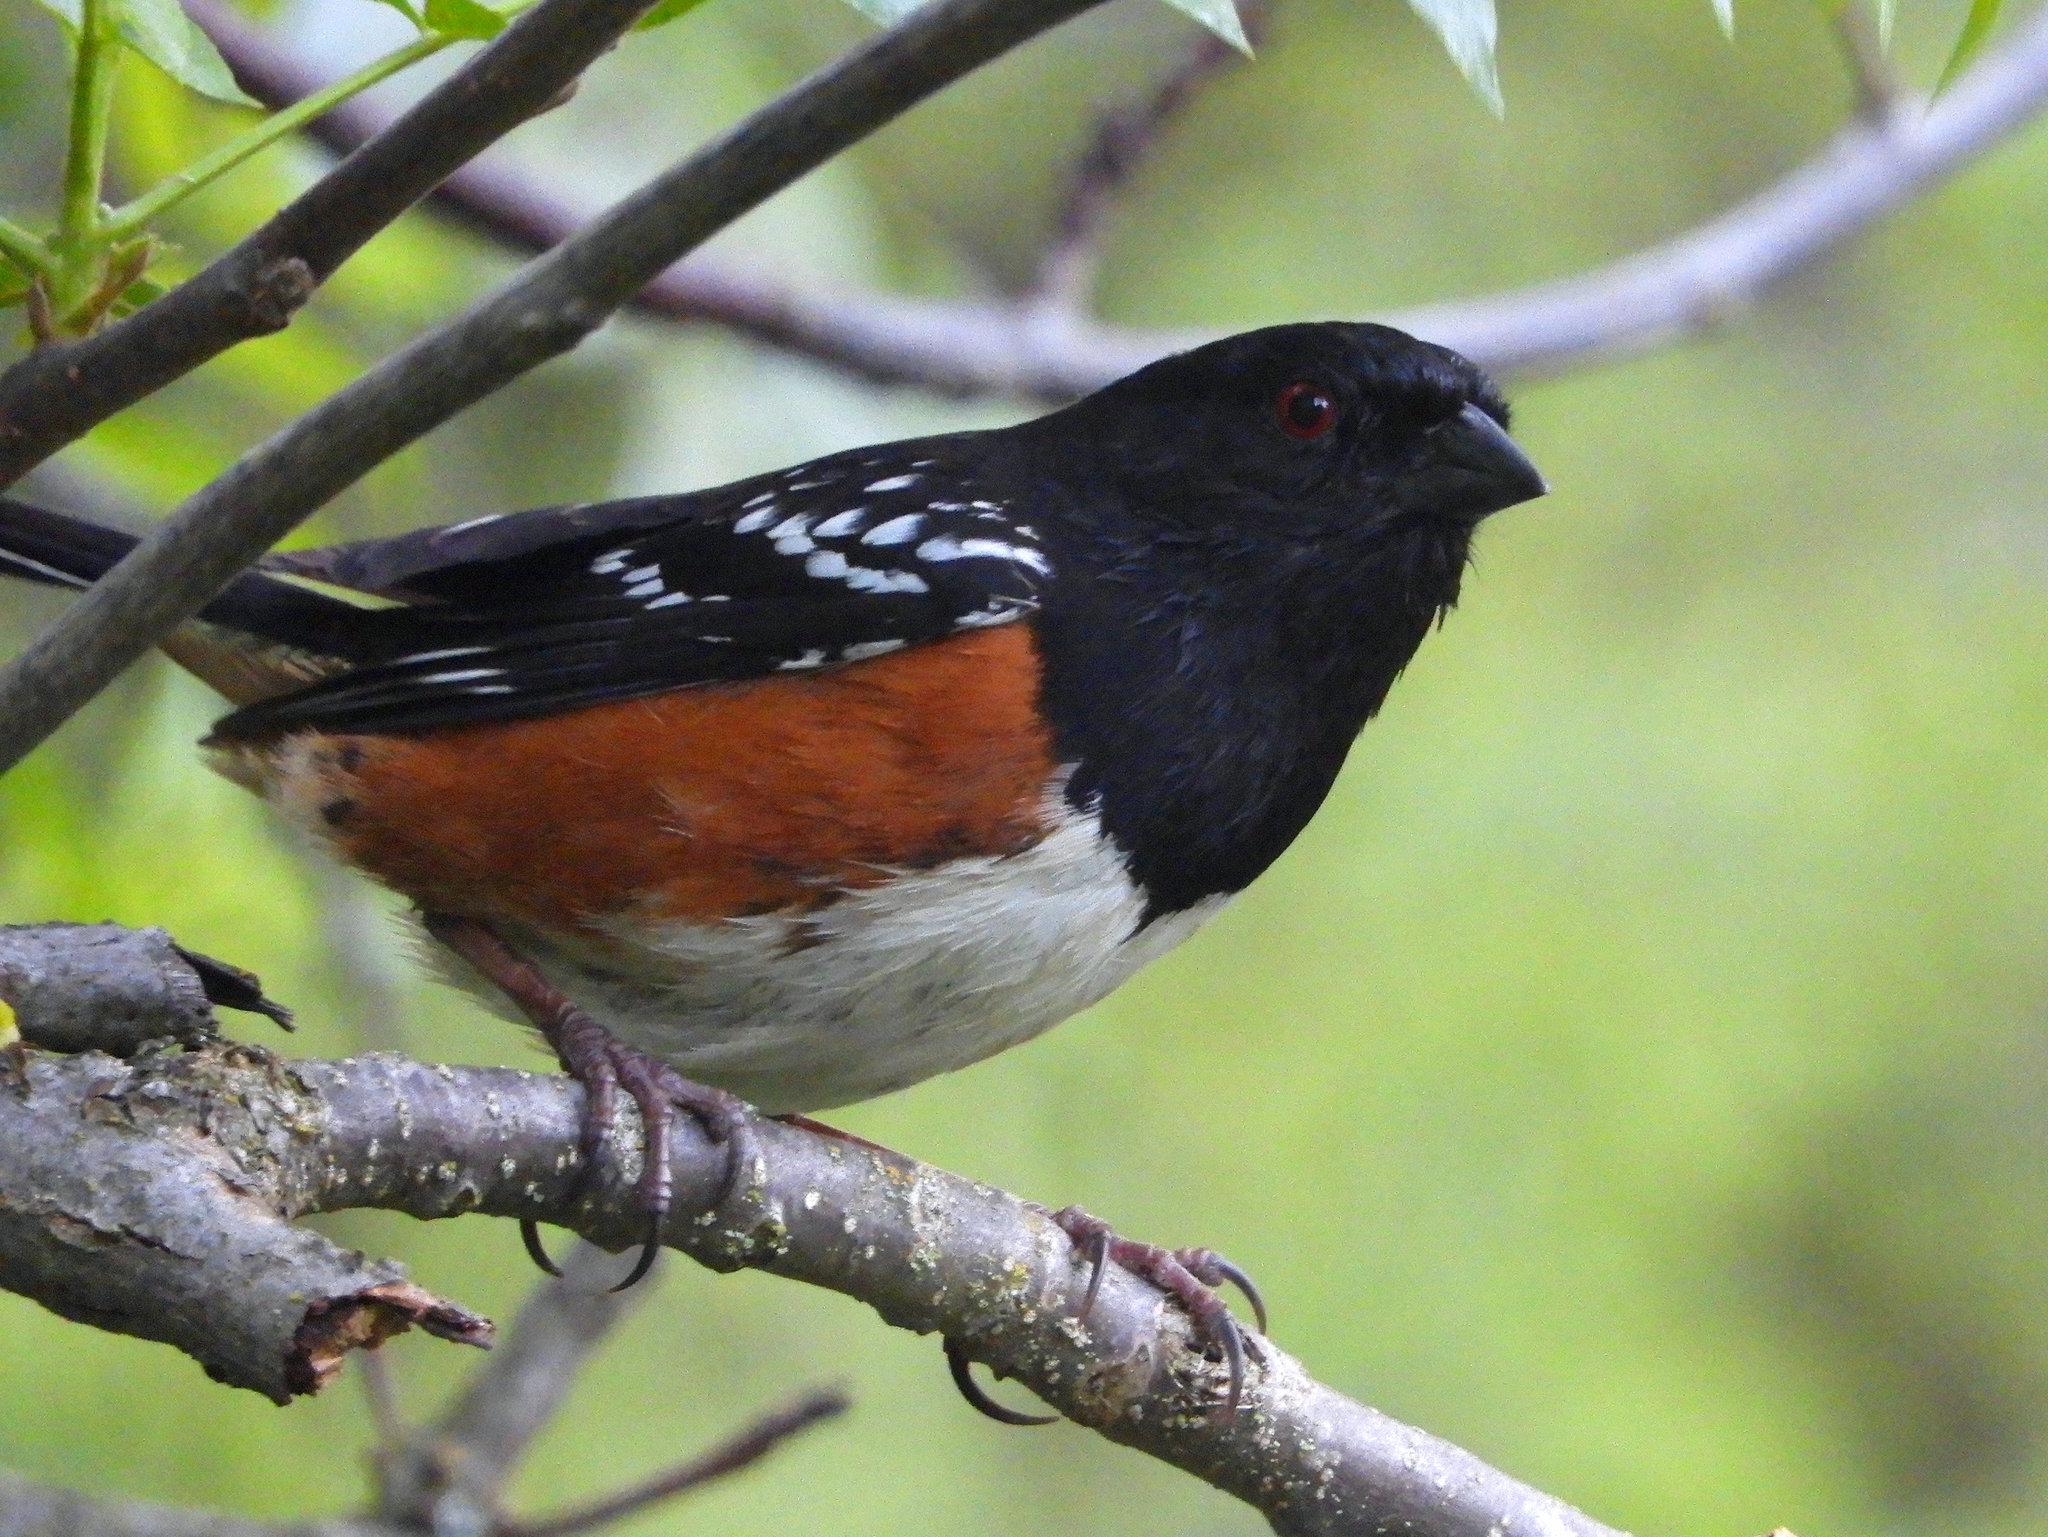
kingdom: Animalia
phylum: Chordata
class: Aves
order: Passeriformes
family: Passerellidae
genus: Pipilo
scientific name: Pipilo maculatus
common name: Spotted towhee
